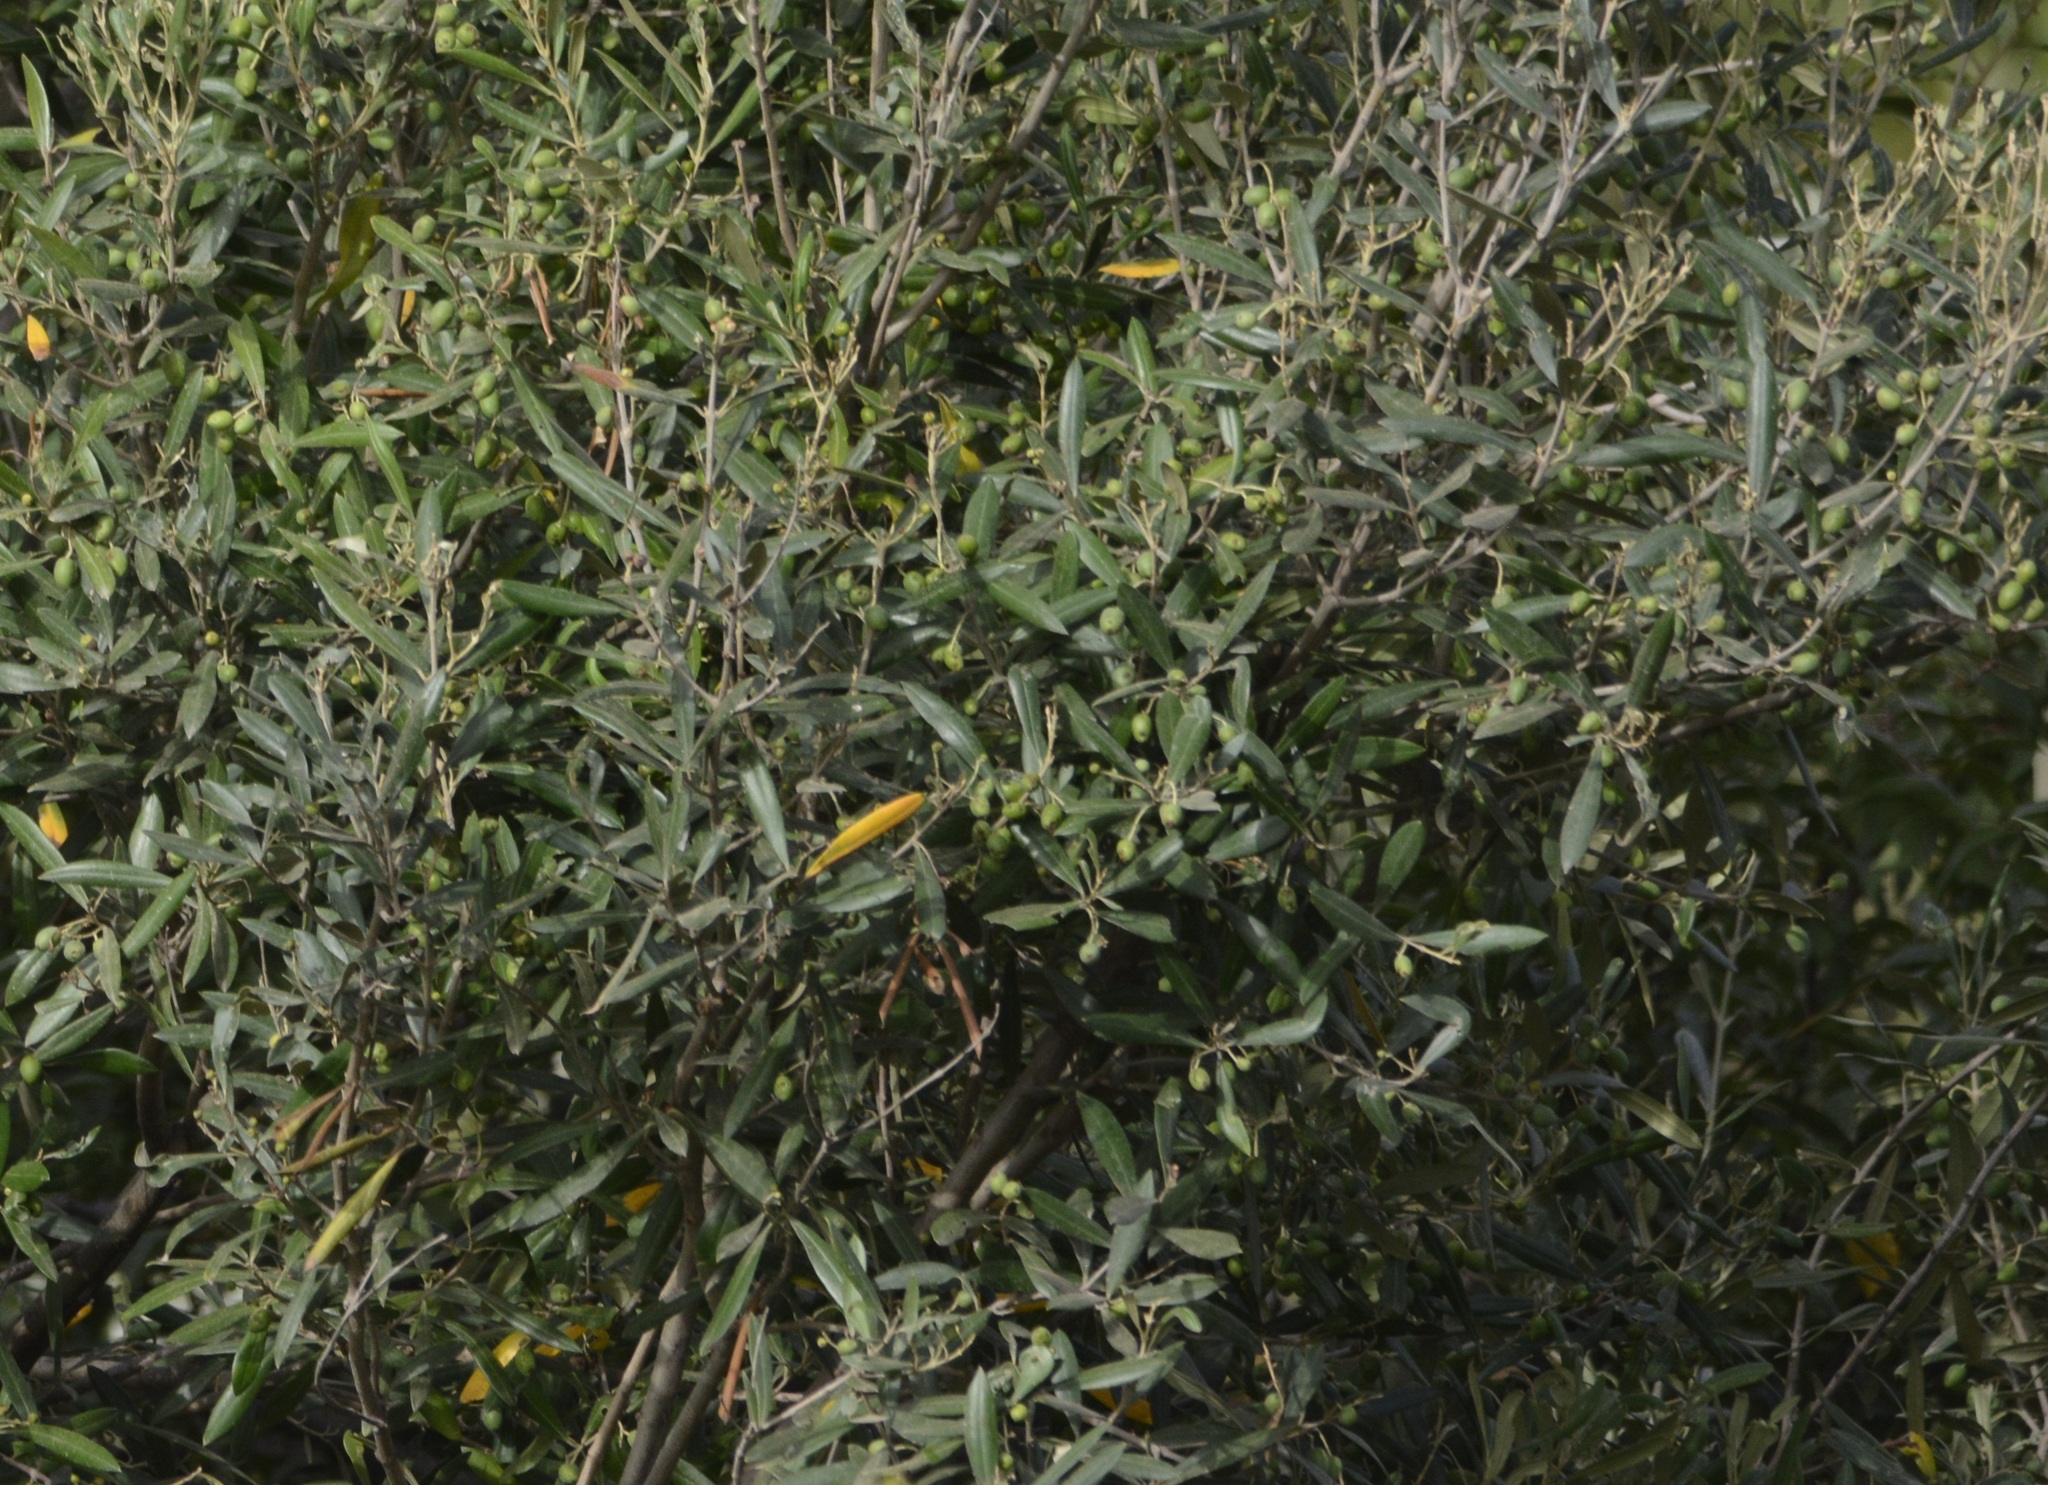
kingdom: Plantae
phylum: Tracheophyta
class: Magnoliopsida
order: Lamiales
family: Oleaceae
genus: Olea
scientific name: Olea europaea
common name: Olive
